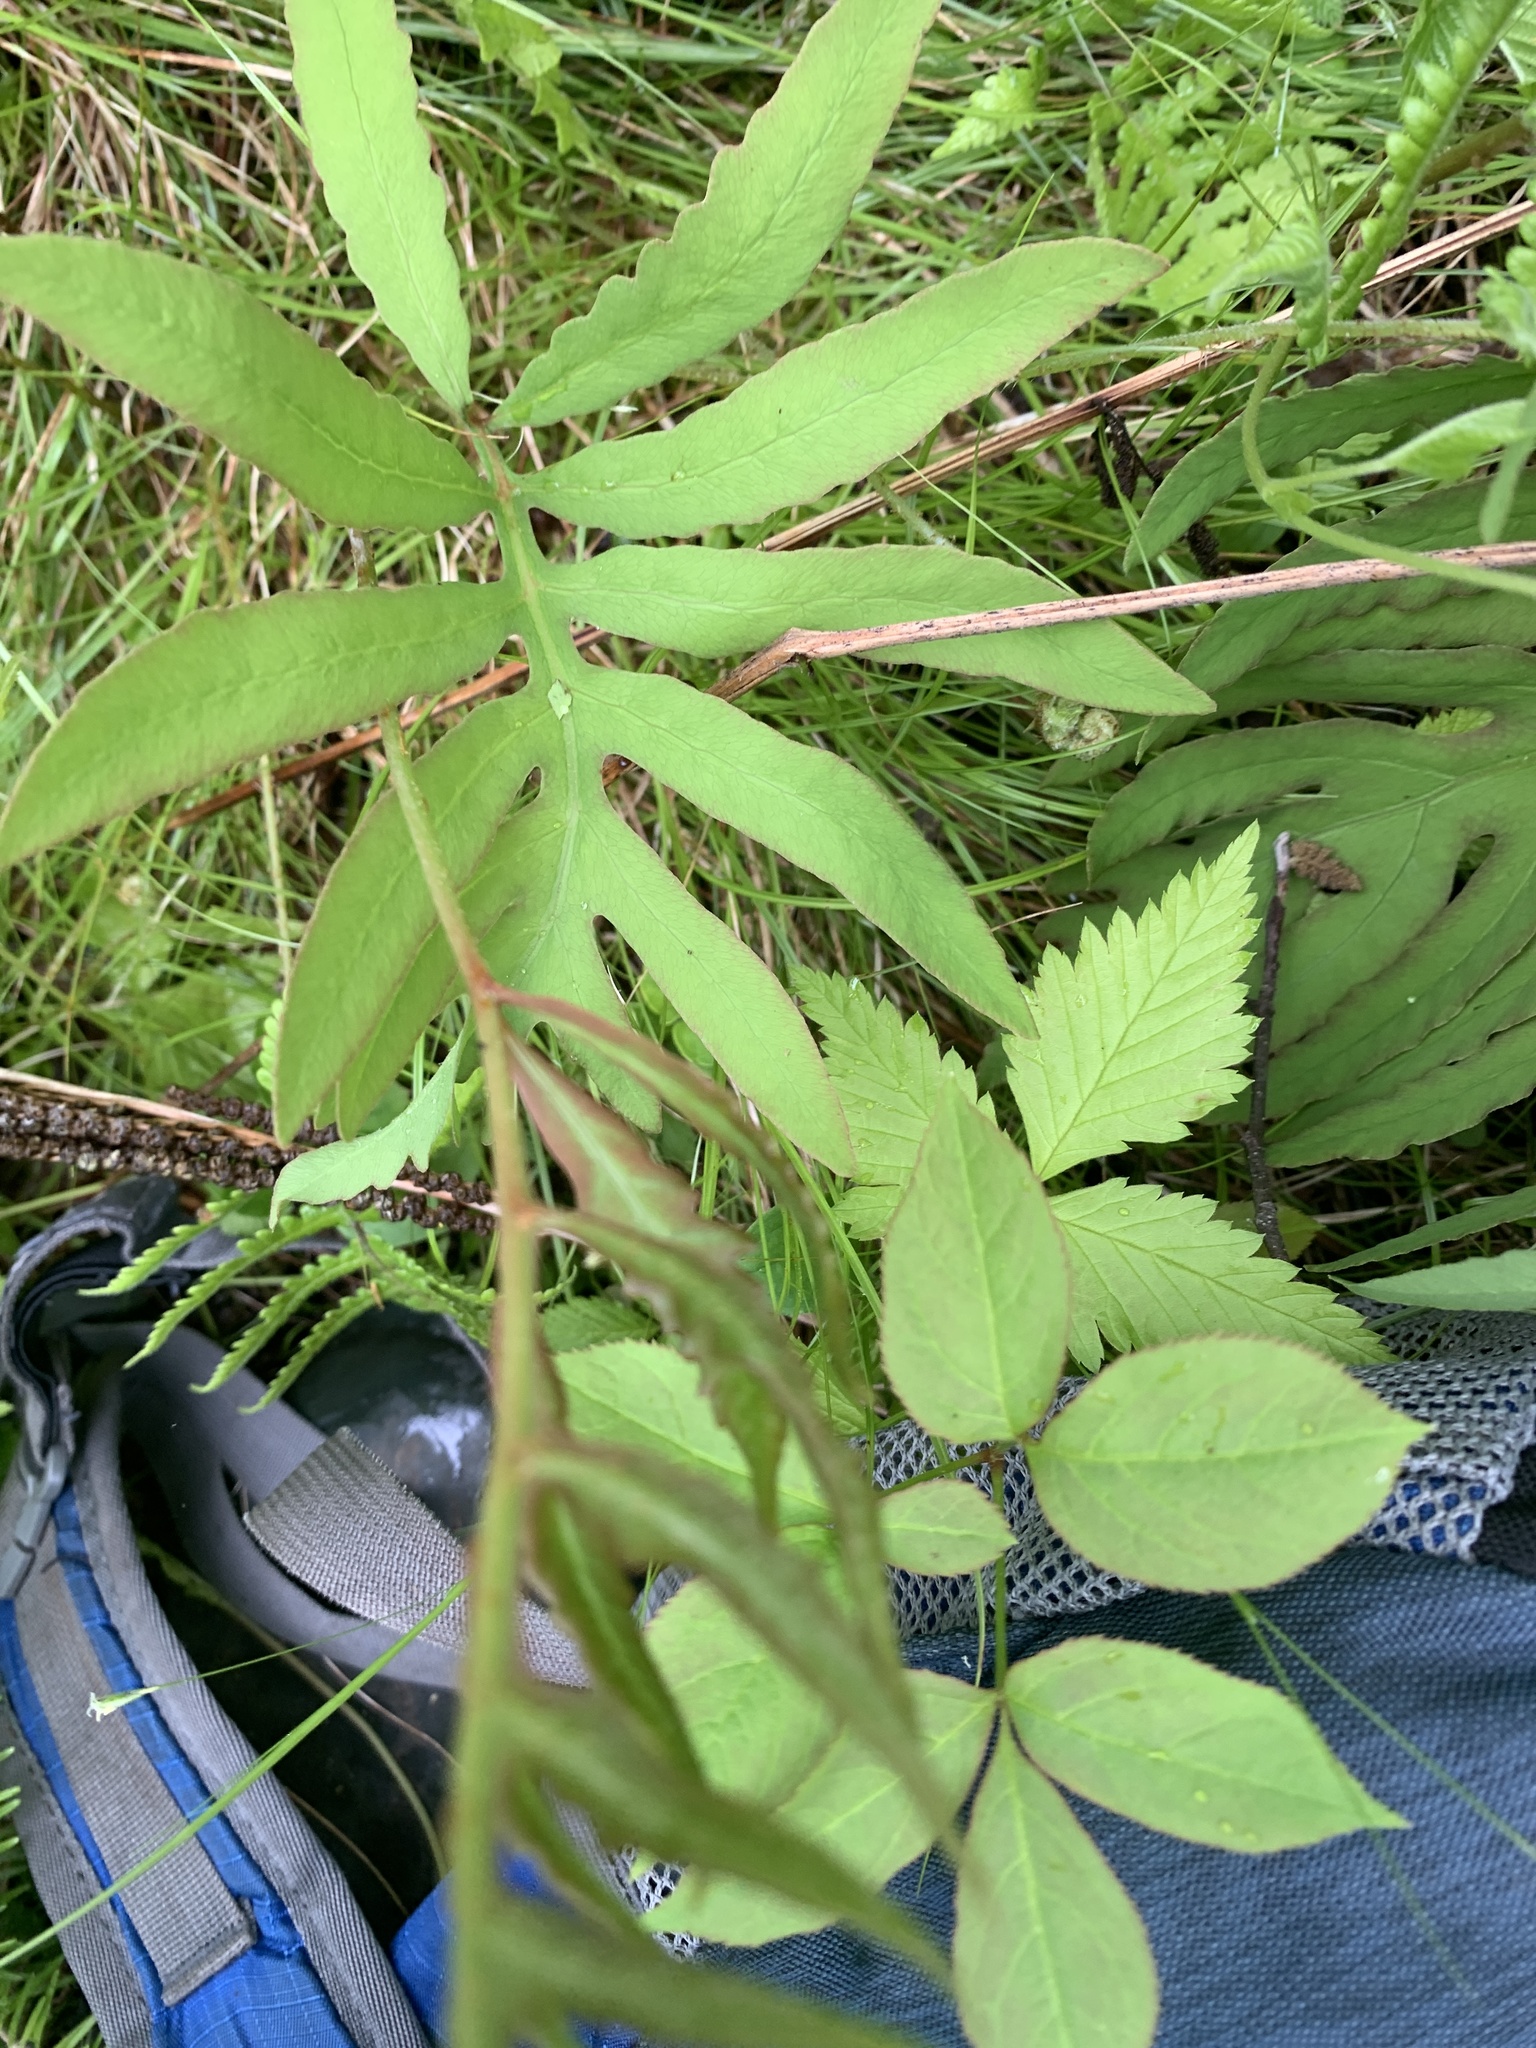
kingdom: Plantae
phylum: Tracheophyta
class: Polypodiopsida
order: Polypodiales
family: Onocleaceae
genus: Onoclea
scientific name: Onoclea sensibilis
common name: Sensitive fern
